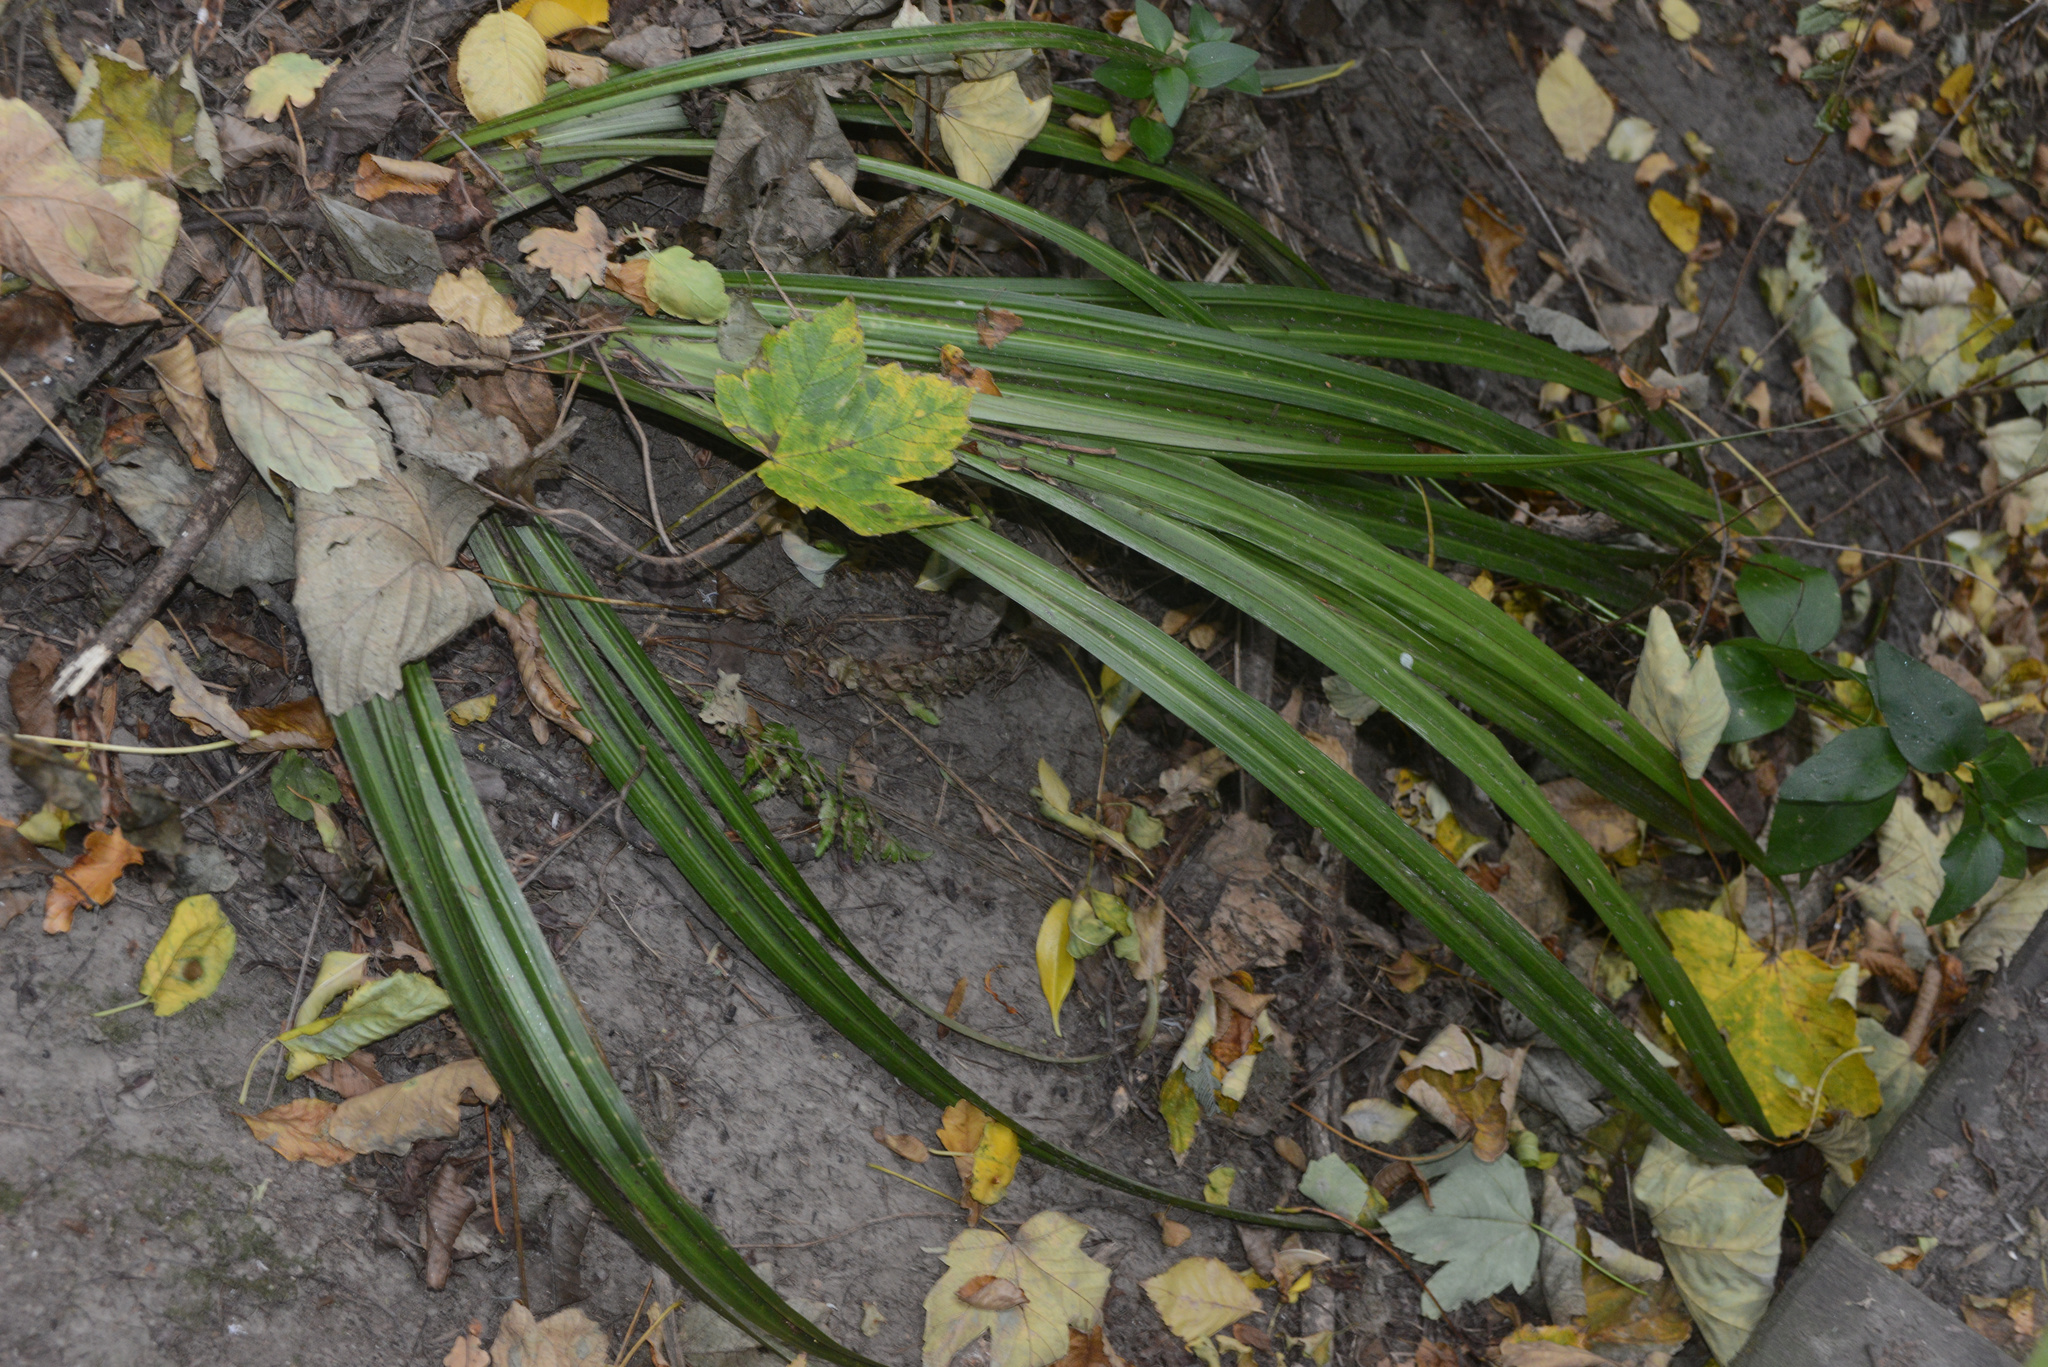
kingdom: Plantae
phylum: Tracheophyta
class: Liliopsida
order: Asparagales
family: Asteliaceae
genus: Astelia
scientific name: Astelia fragrans
